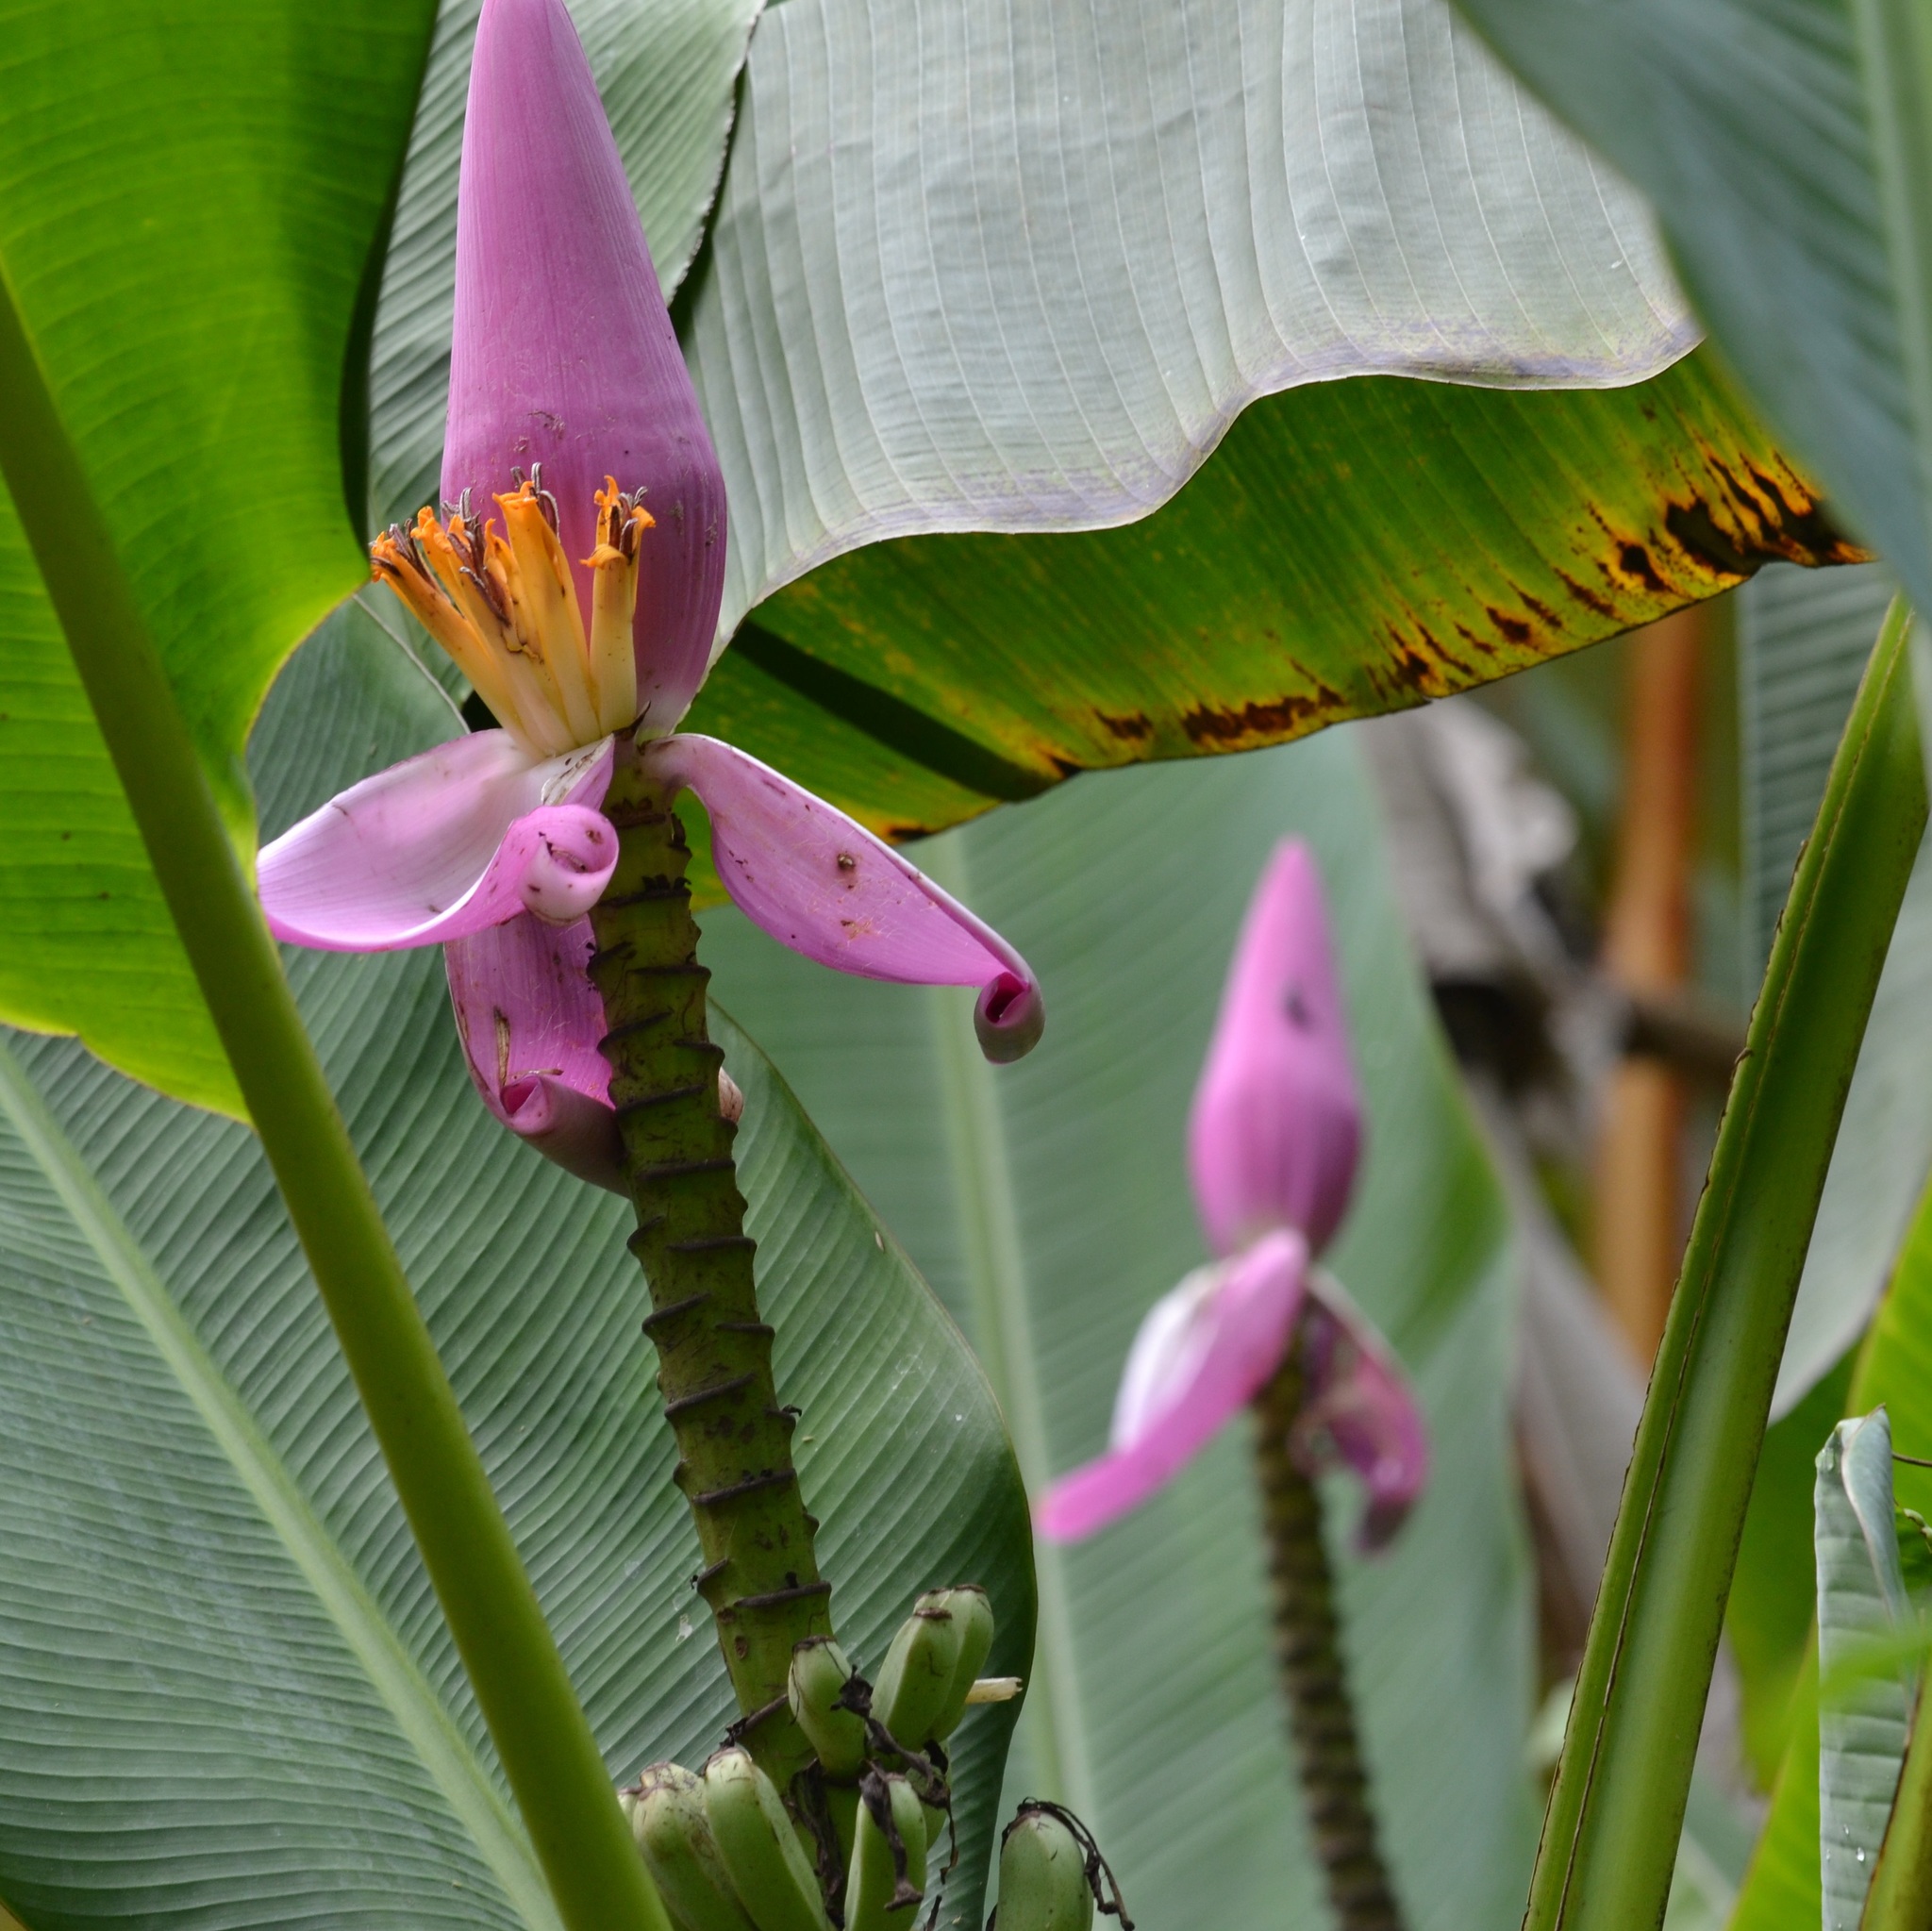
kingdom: Plantae
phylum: Tracheophyta
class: Liliopsida
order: Zingiberales
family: Musaceae
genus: Musa
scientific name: Musa ornata
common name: Flowering banana
